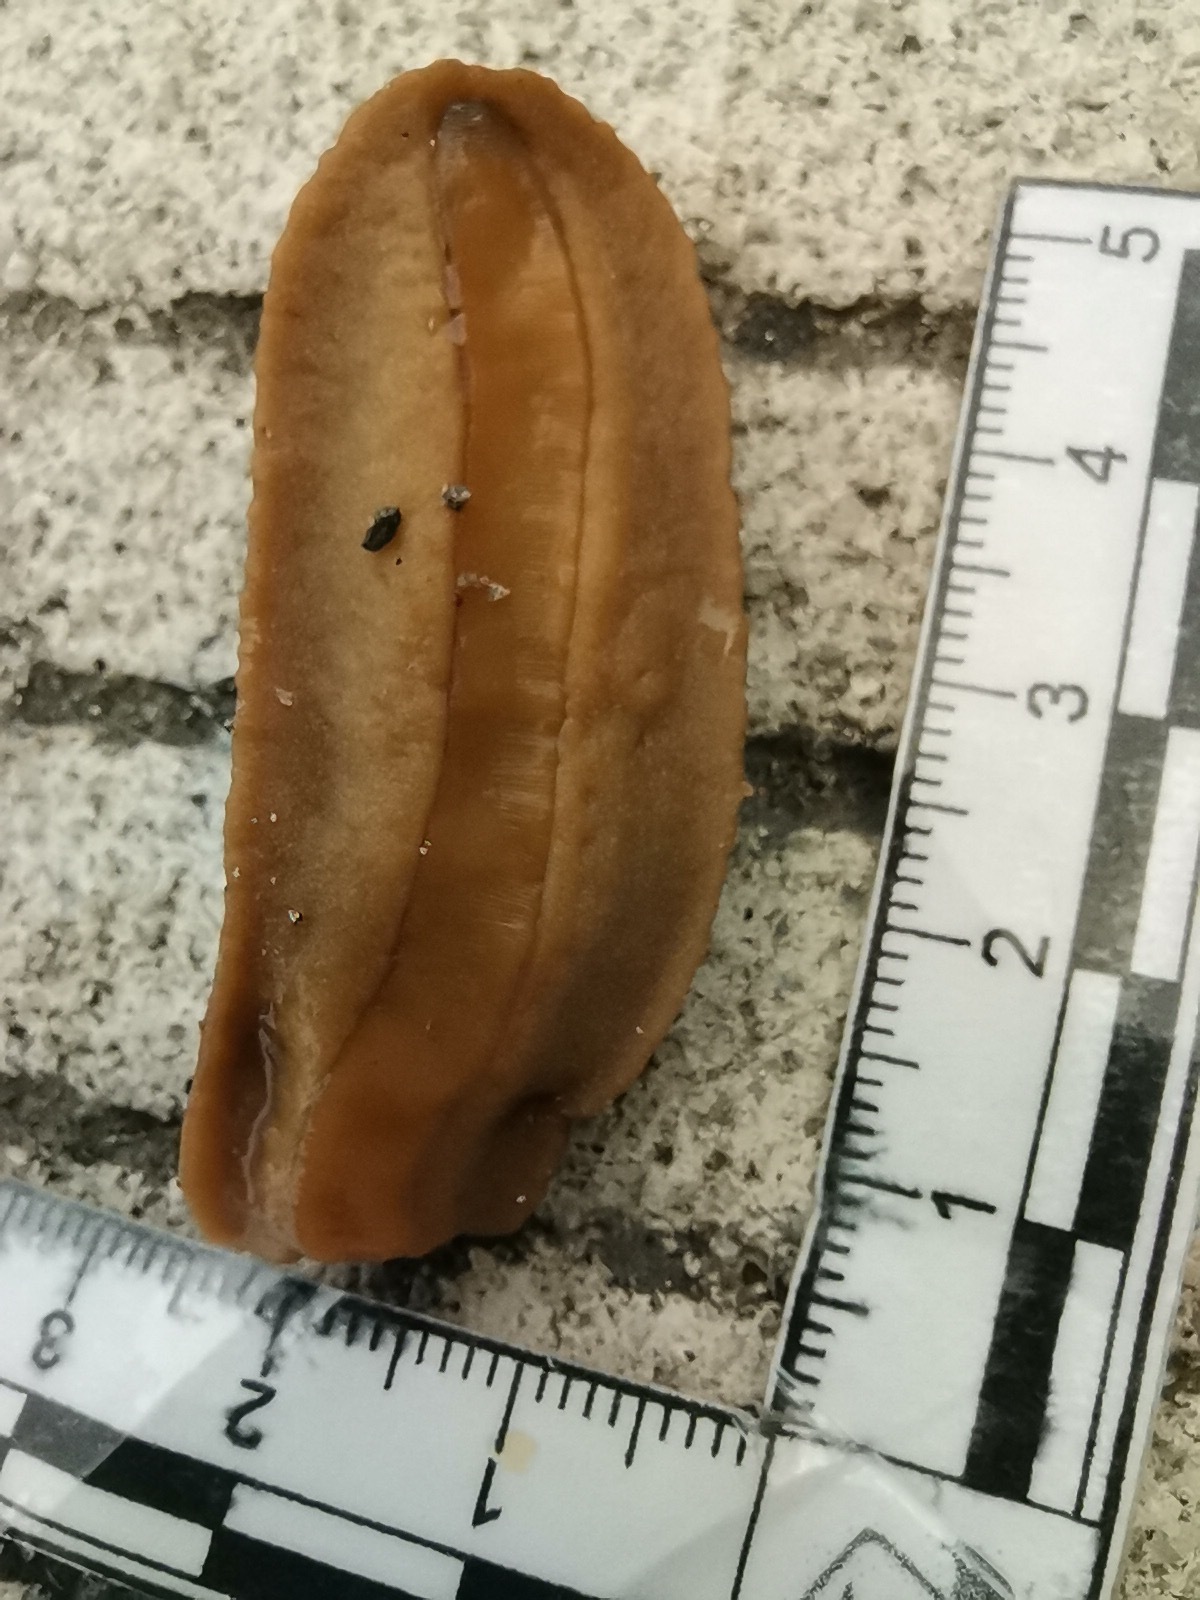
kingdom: Animalia
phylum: Mollusca
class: Gastropoda
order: Systellommatophora
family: Veronicellidae
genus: Sarasinula
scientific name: Sarasinula plebeia
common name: Caribbean leatherleaf
